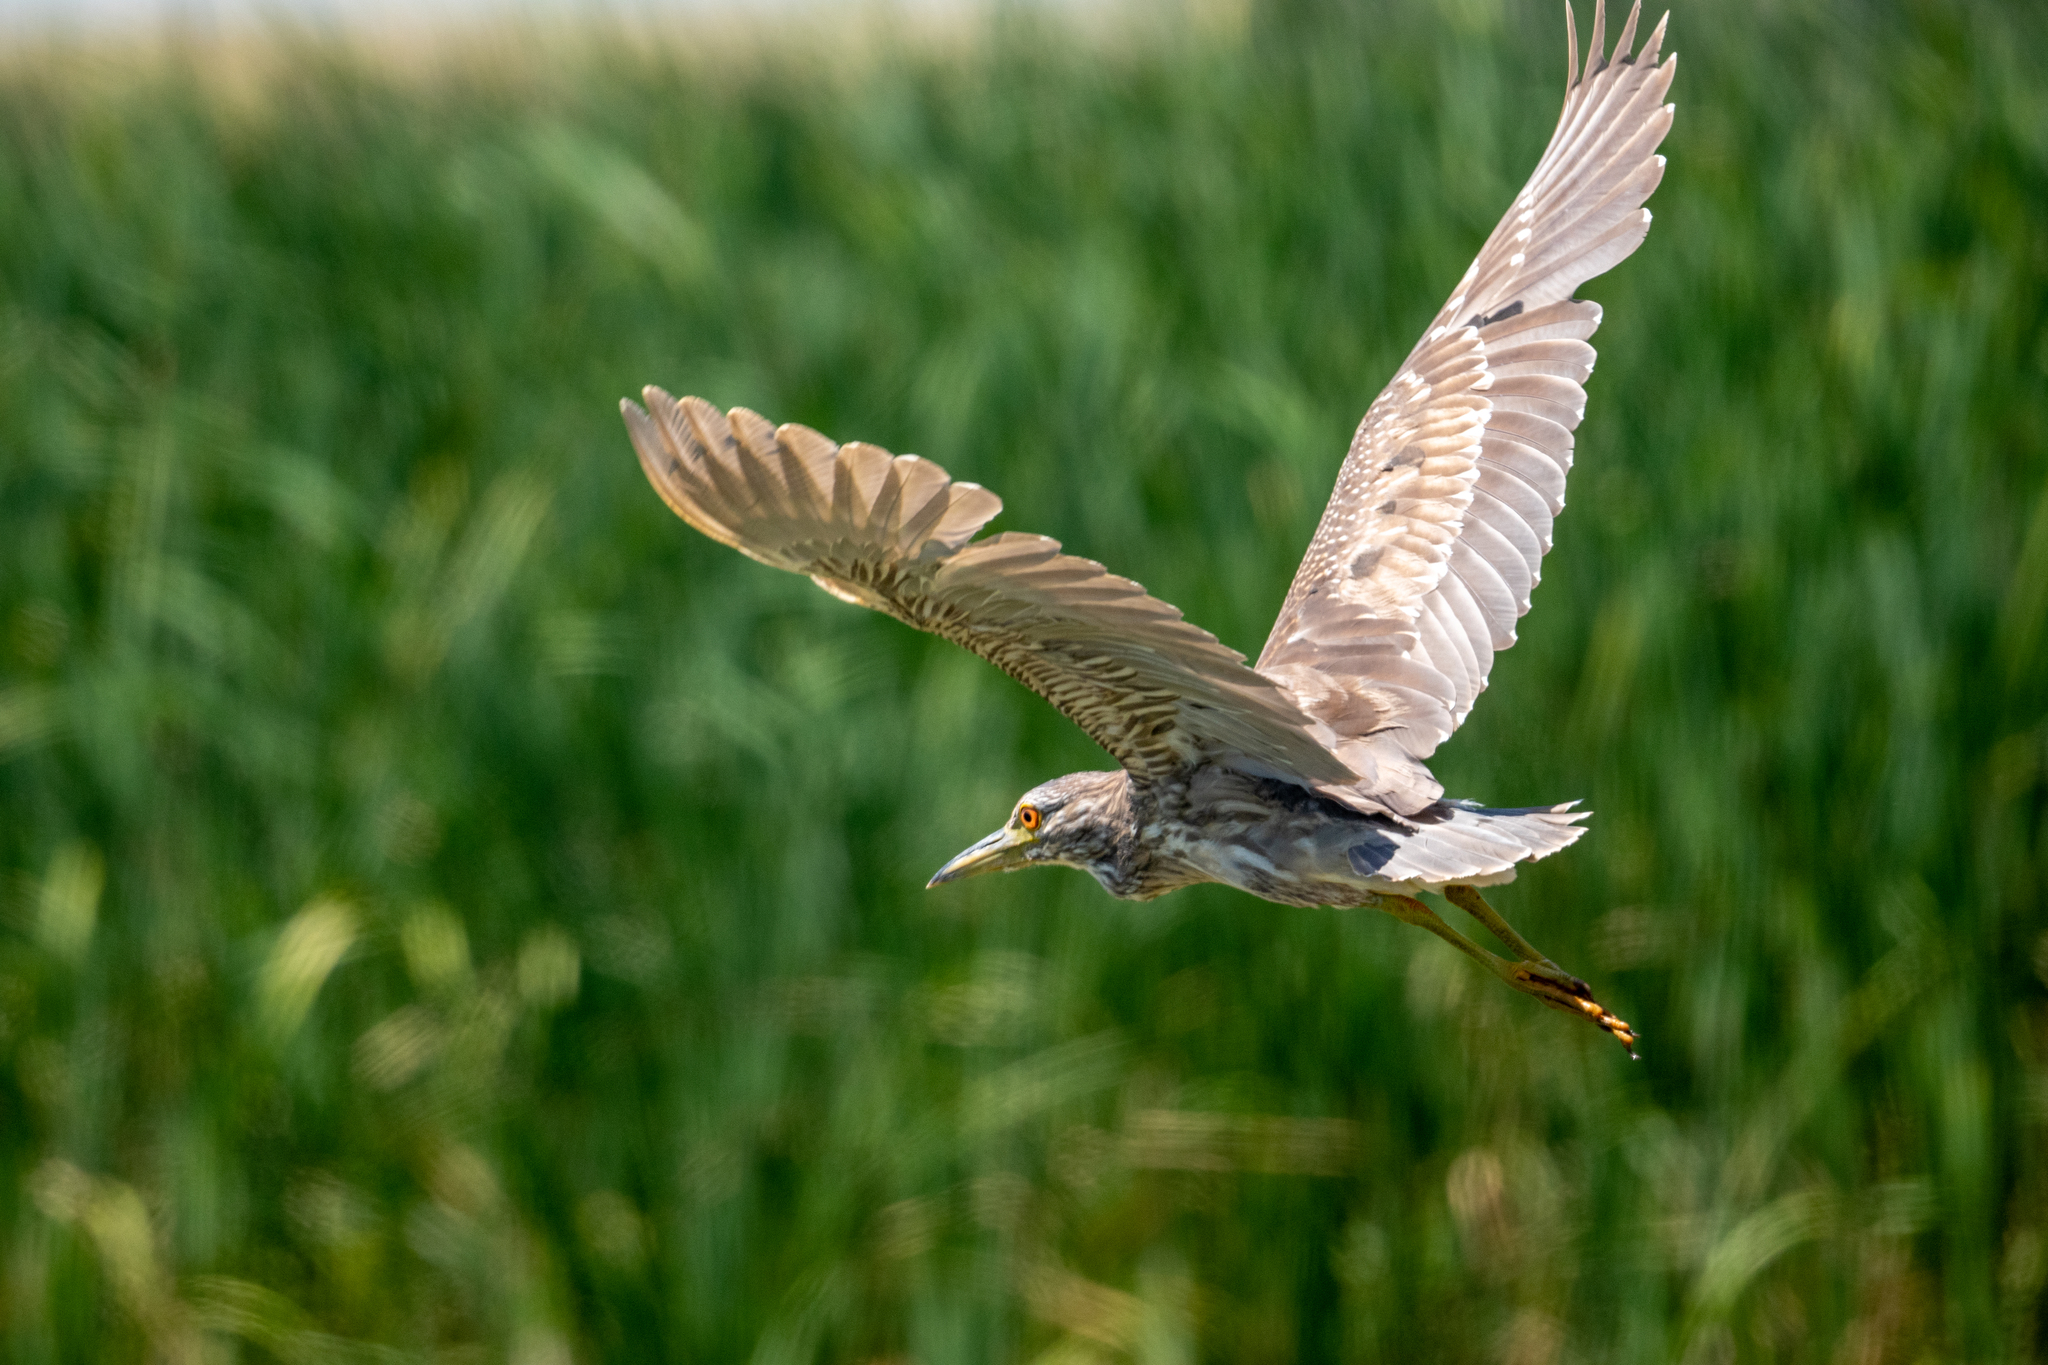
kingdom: Animalia
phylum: Chordata
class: Aves
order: Pelecaniformes
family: Ardeidae
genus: Nycticorax
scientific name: Nycticorax nycticorax
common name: Black-crowned night heron
